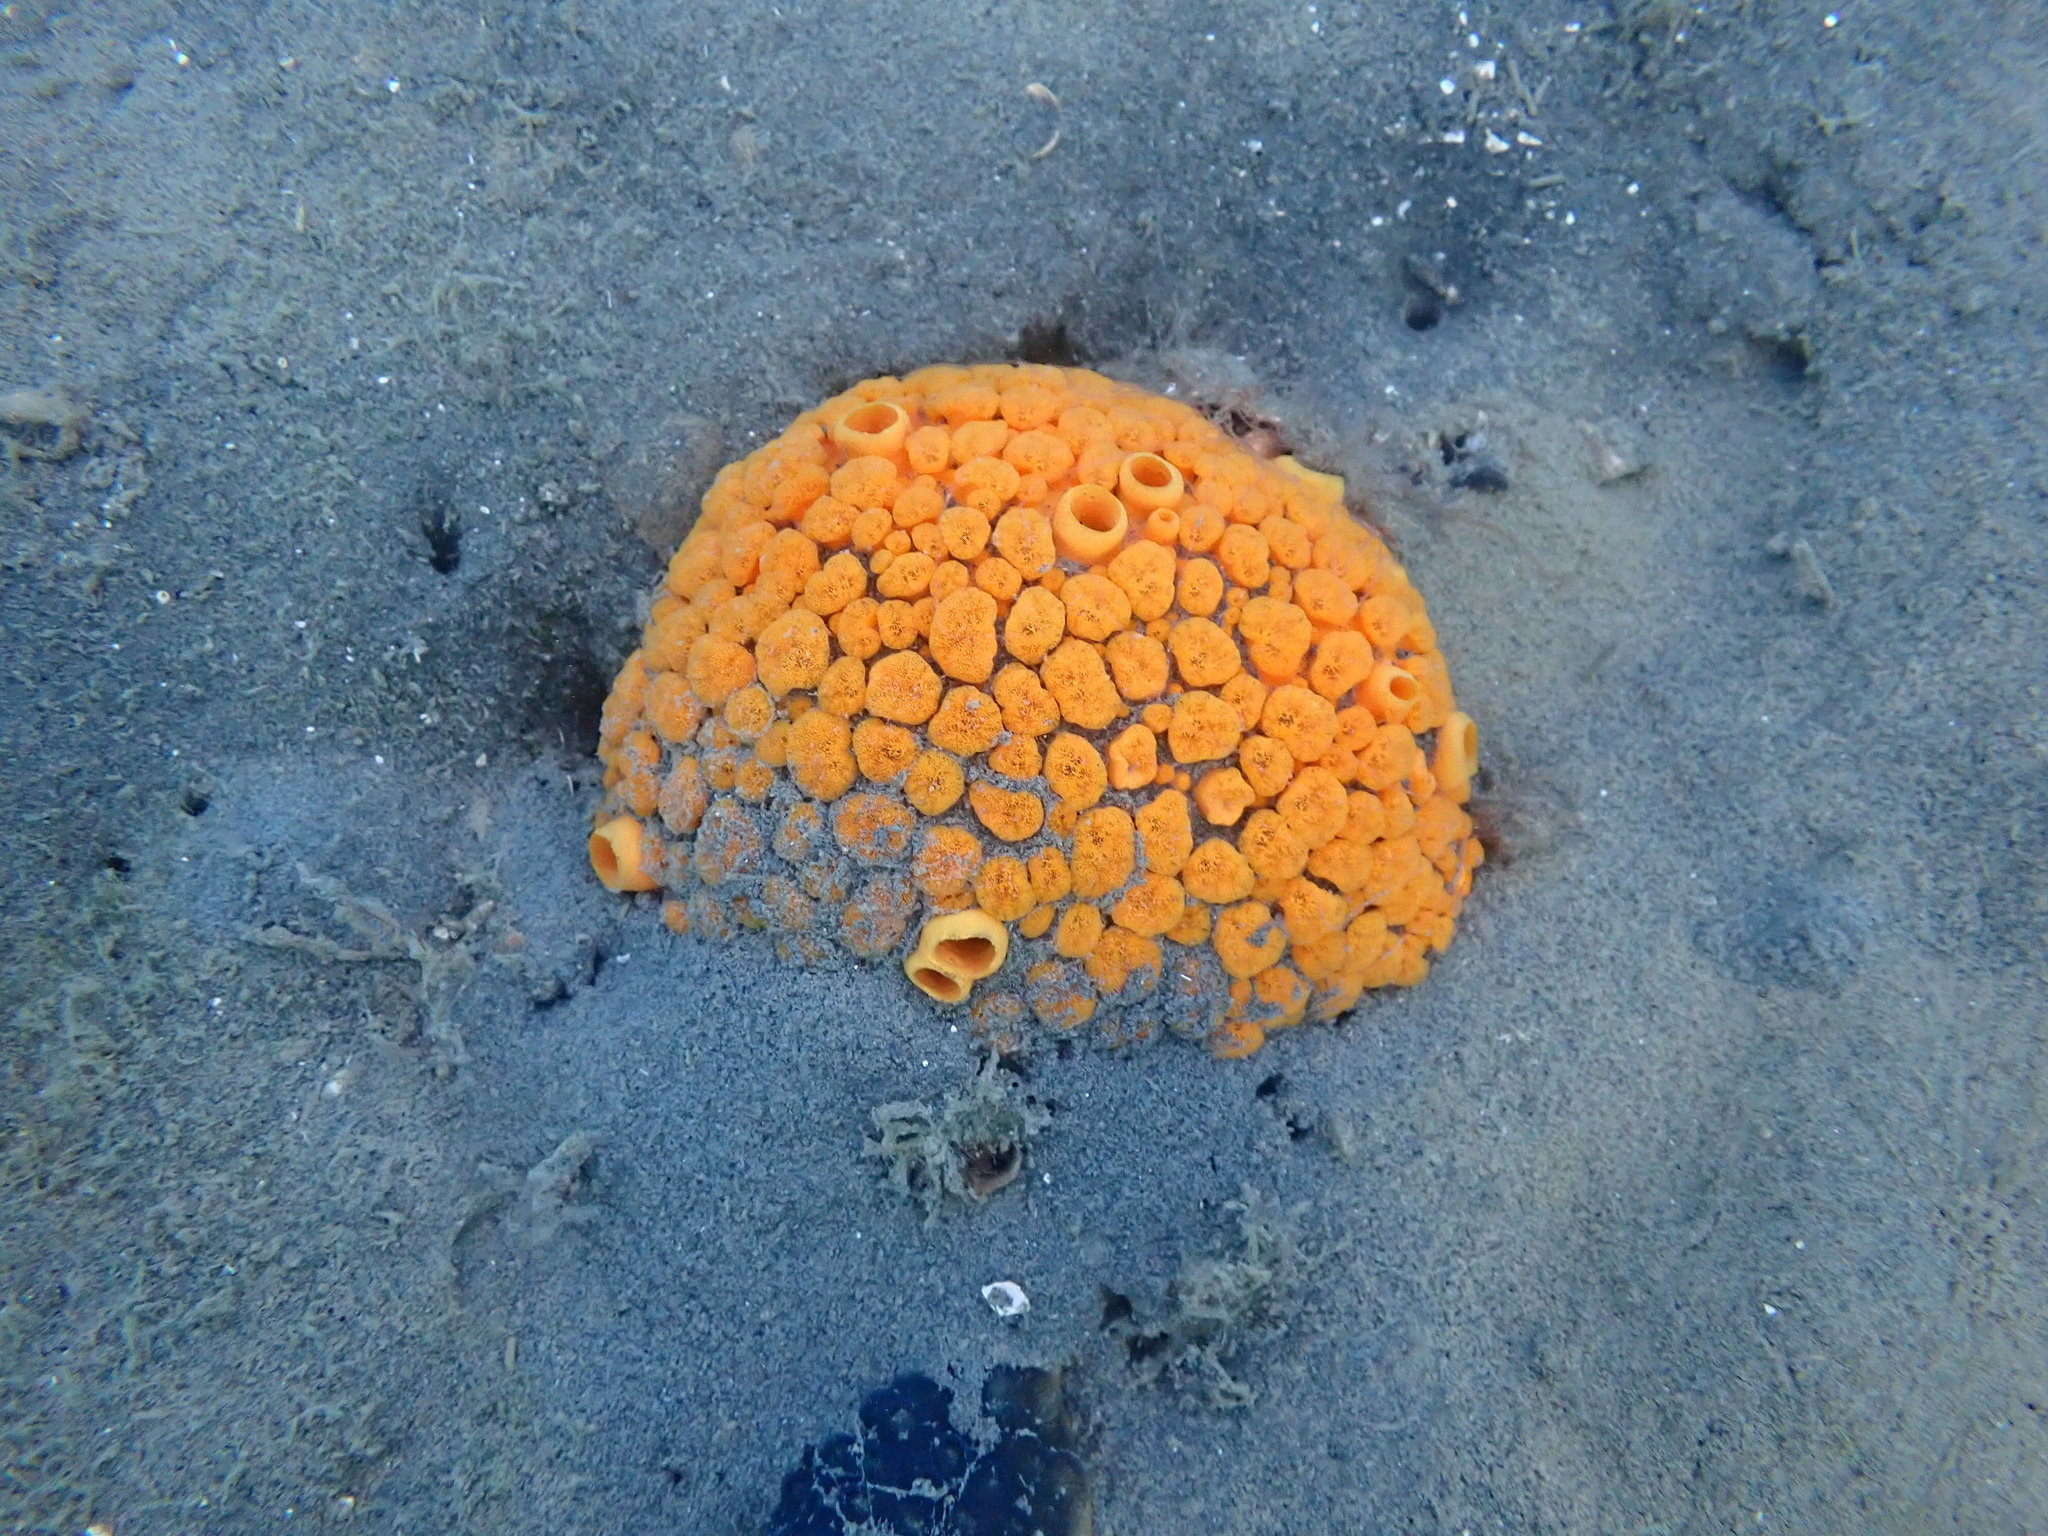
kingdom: Animalia
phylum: Porifera
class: Demospongiae
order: Clionaida
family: Clionaidae
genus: Cliona
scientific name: Cliona celata
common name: Boring sponge
